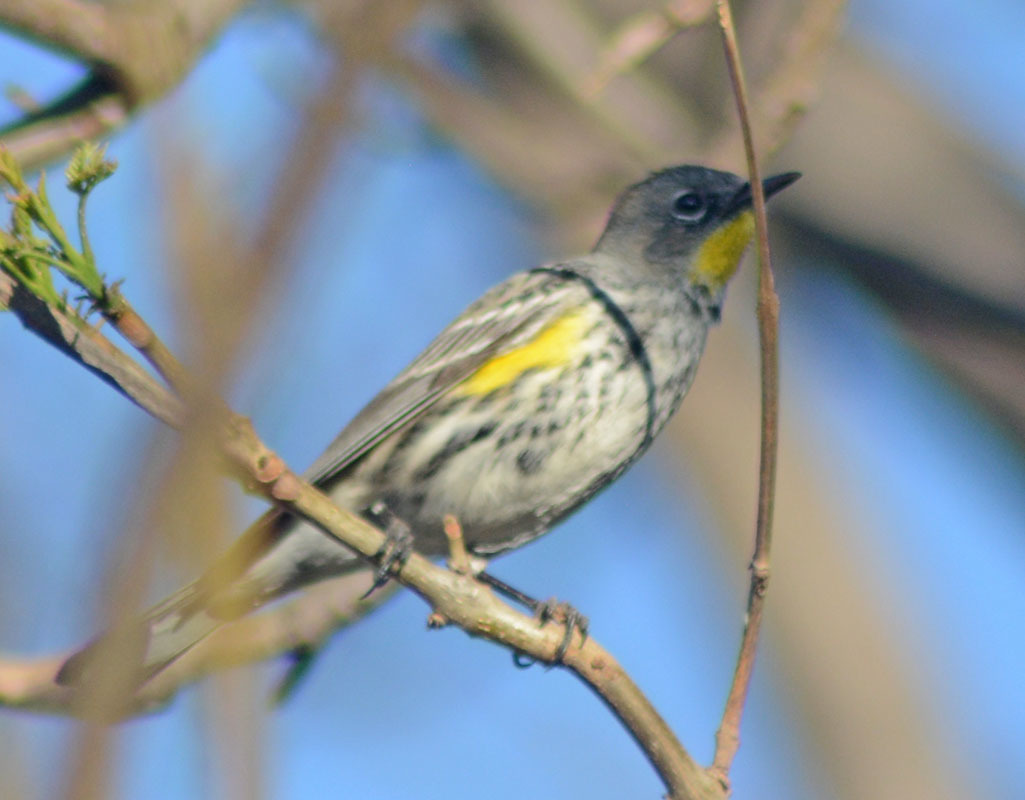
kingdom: Animalia
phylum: Chordata
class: Aves
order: Passeriformes
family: Parulidae
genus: Setophaga
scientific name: Setophaga auduboni
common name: Audubon's warbler
